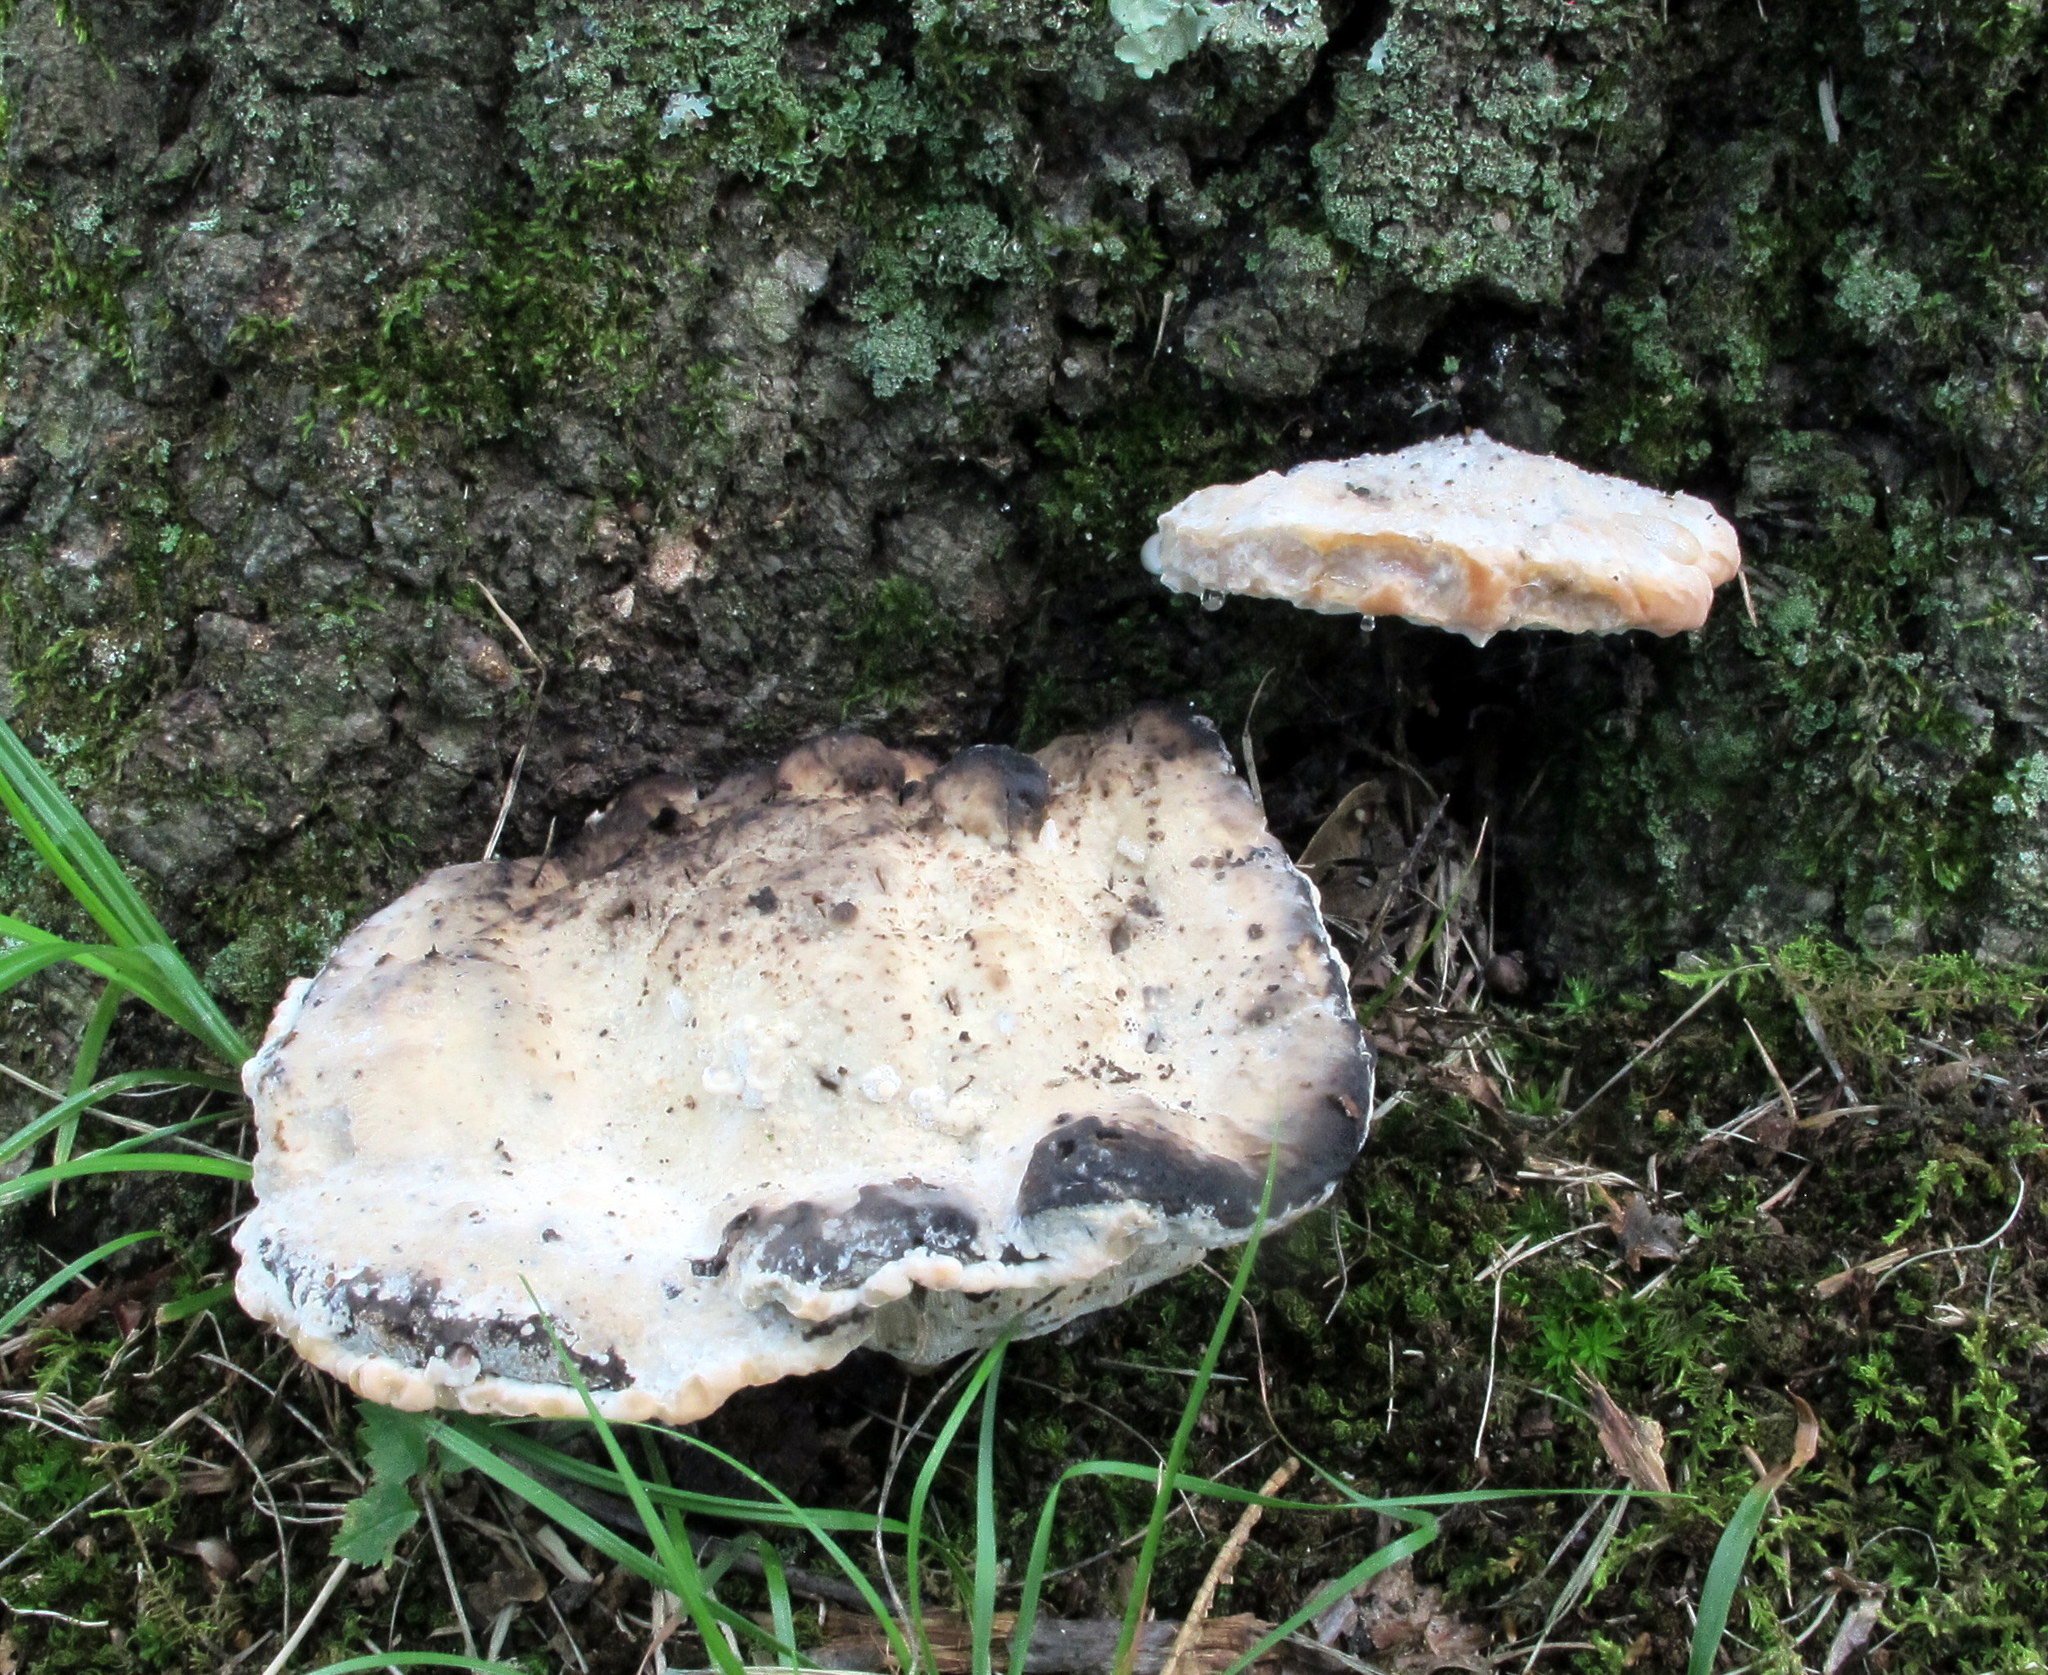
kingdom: Fungi
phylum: Basidiomycota
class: Agaricomycetes
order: Polyporales
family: Fomitopsidaceae
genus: Niveoporofomes
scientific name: Niveoporofomes spraguei
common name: Green cheese polypore
